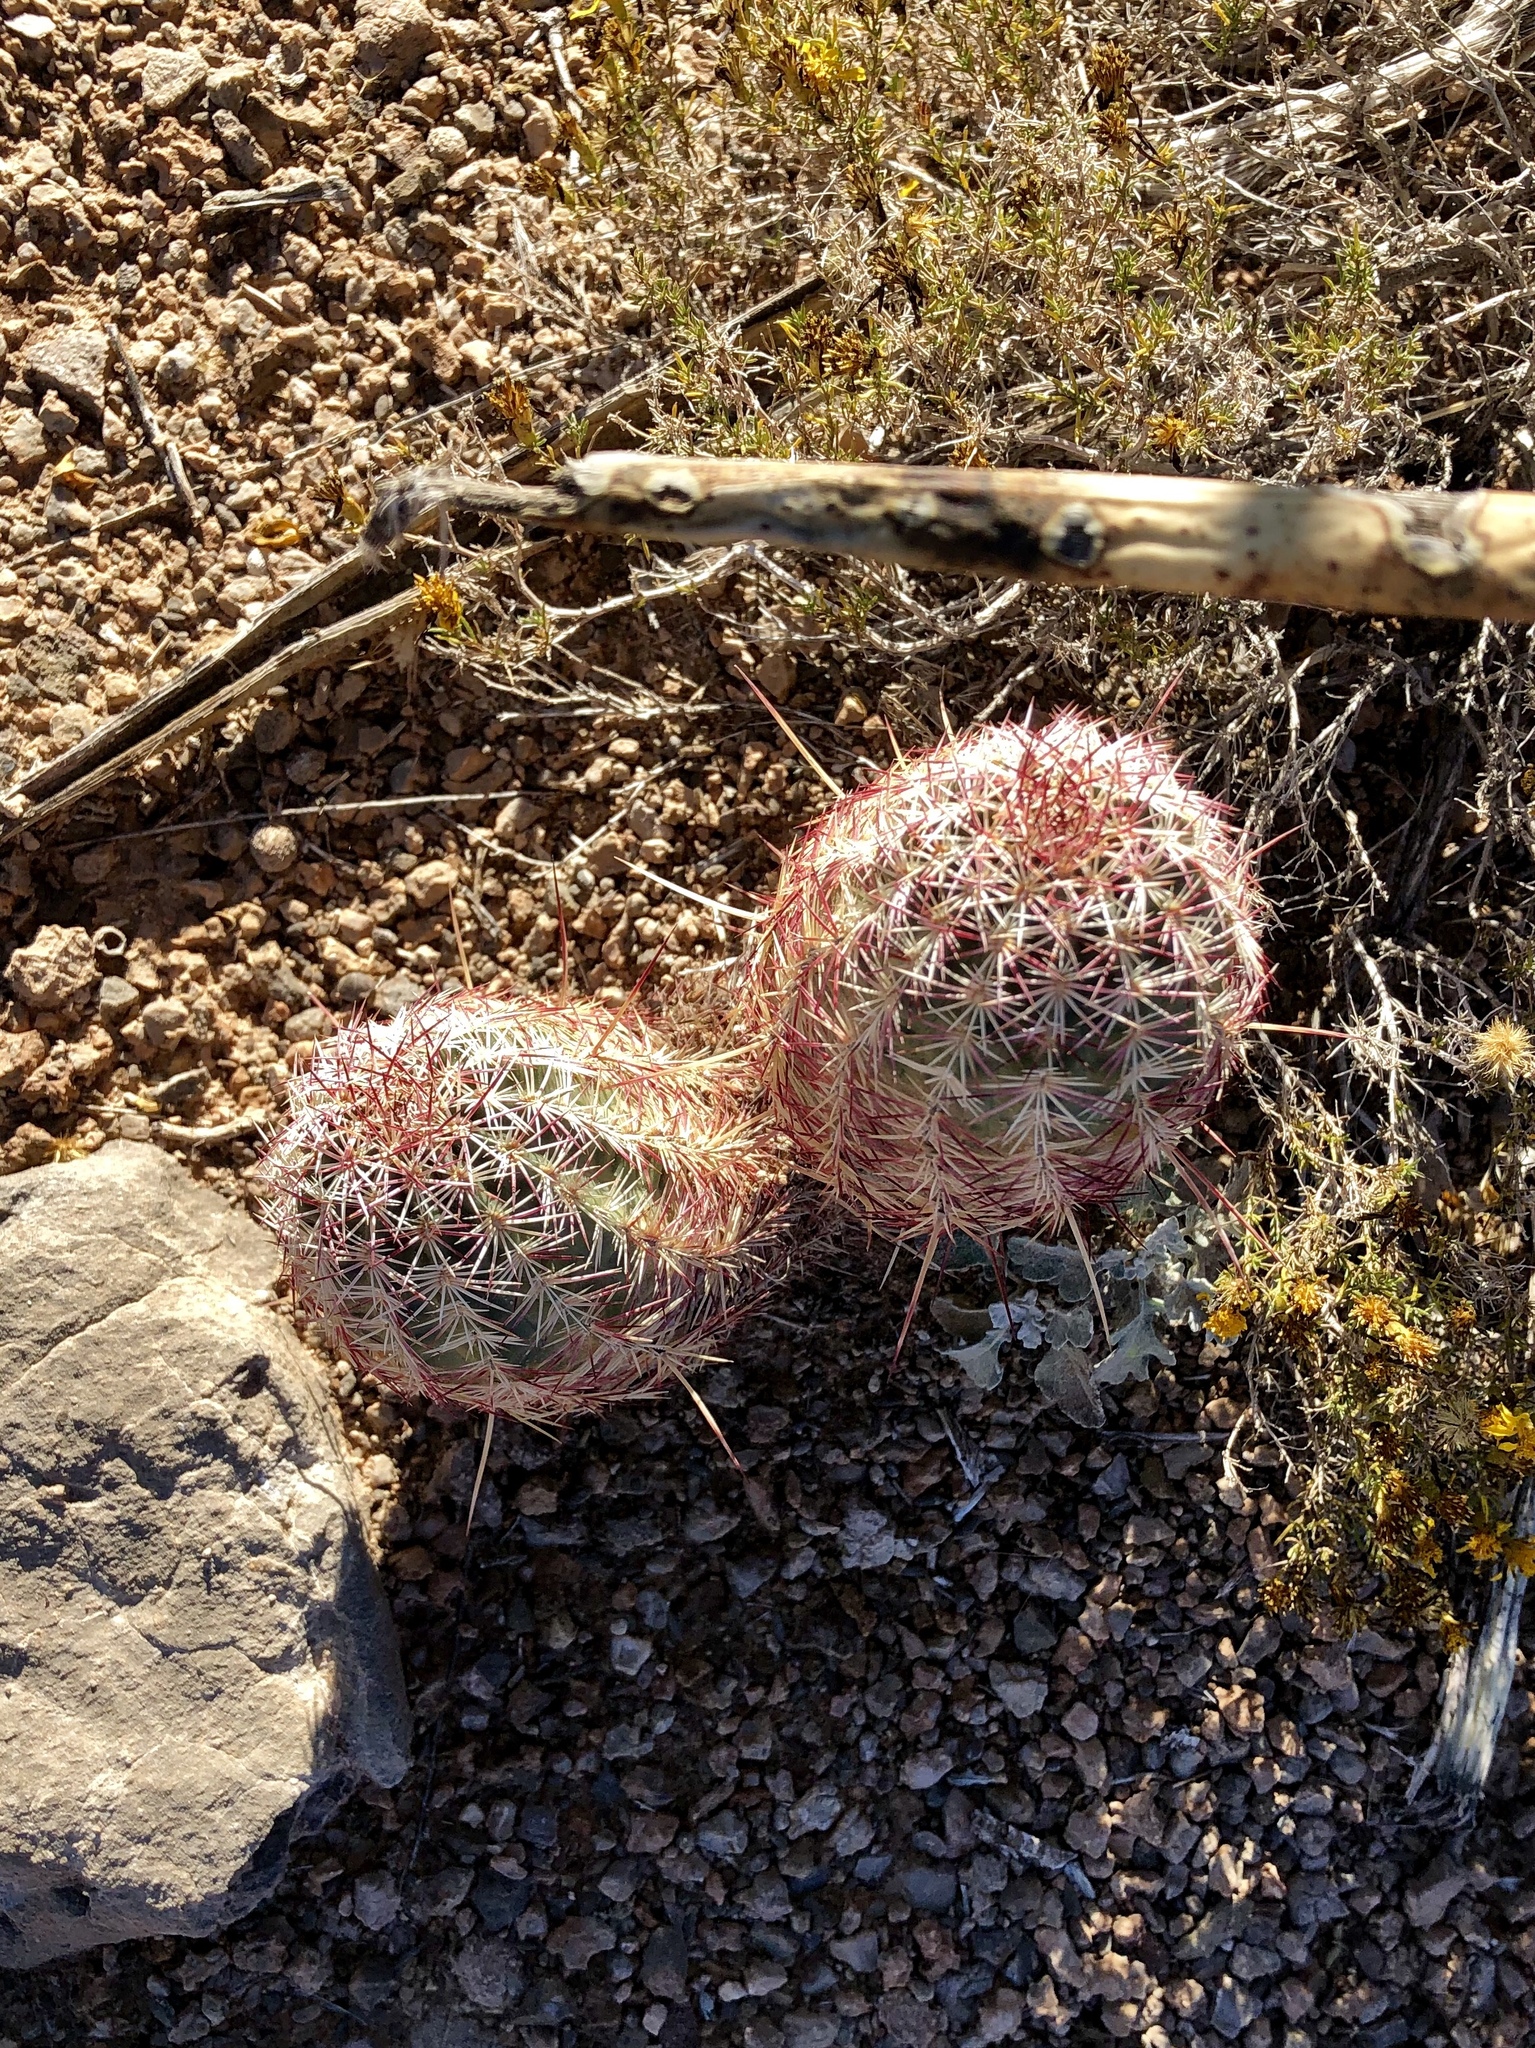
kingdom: Plantae
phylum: Tracheophyta
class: Magnoliopsida
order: Caryophyllales
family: Cactaceae
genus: Echinocereus
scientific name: Echinocereus viridiflorus
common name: Nylon hedgehog cactus
